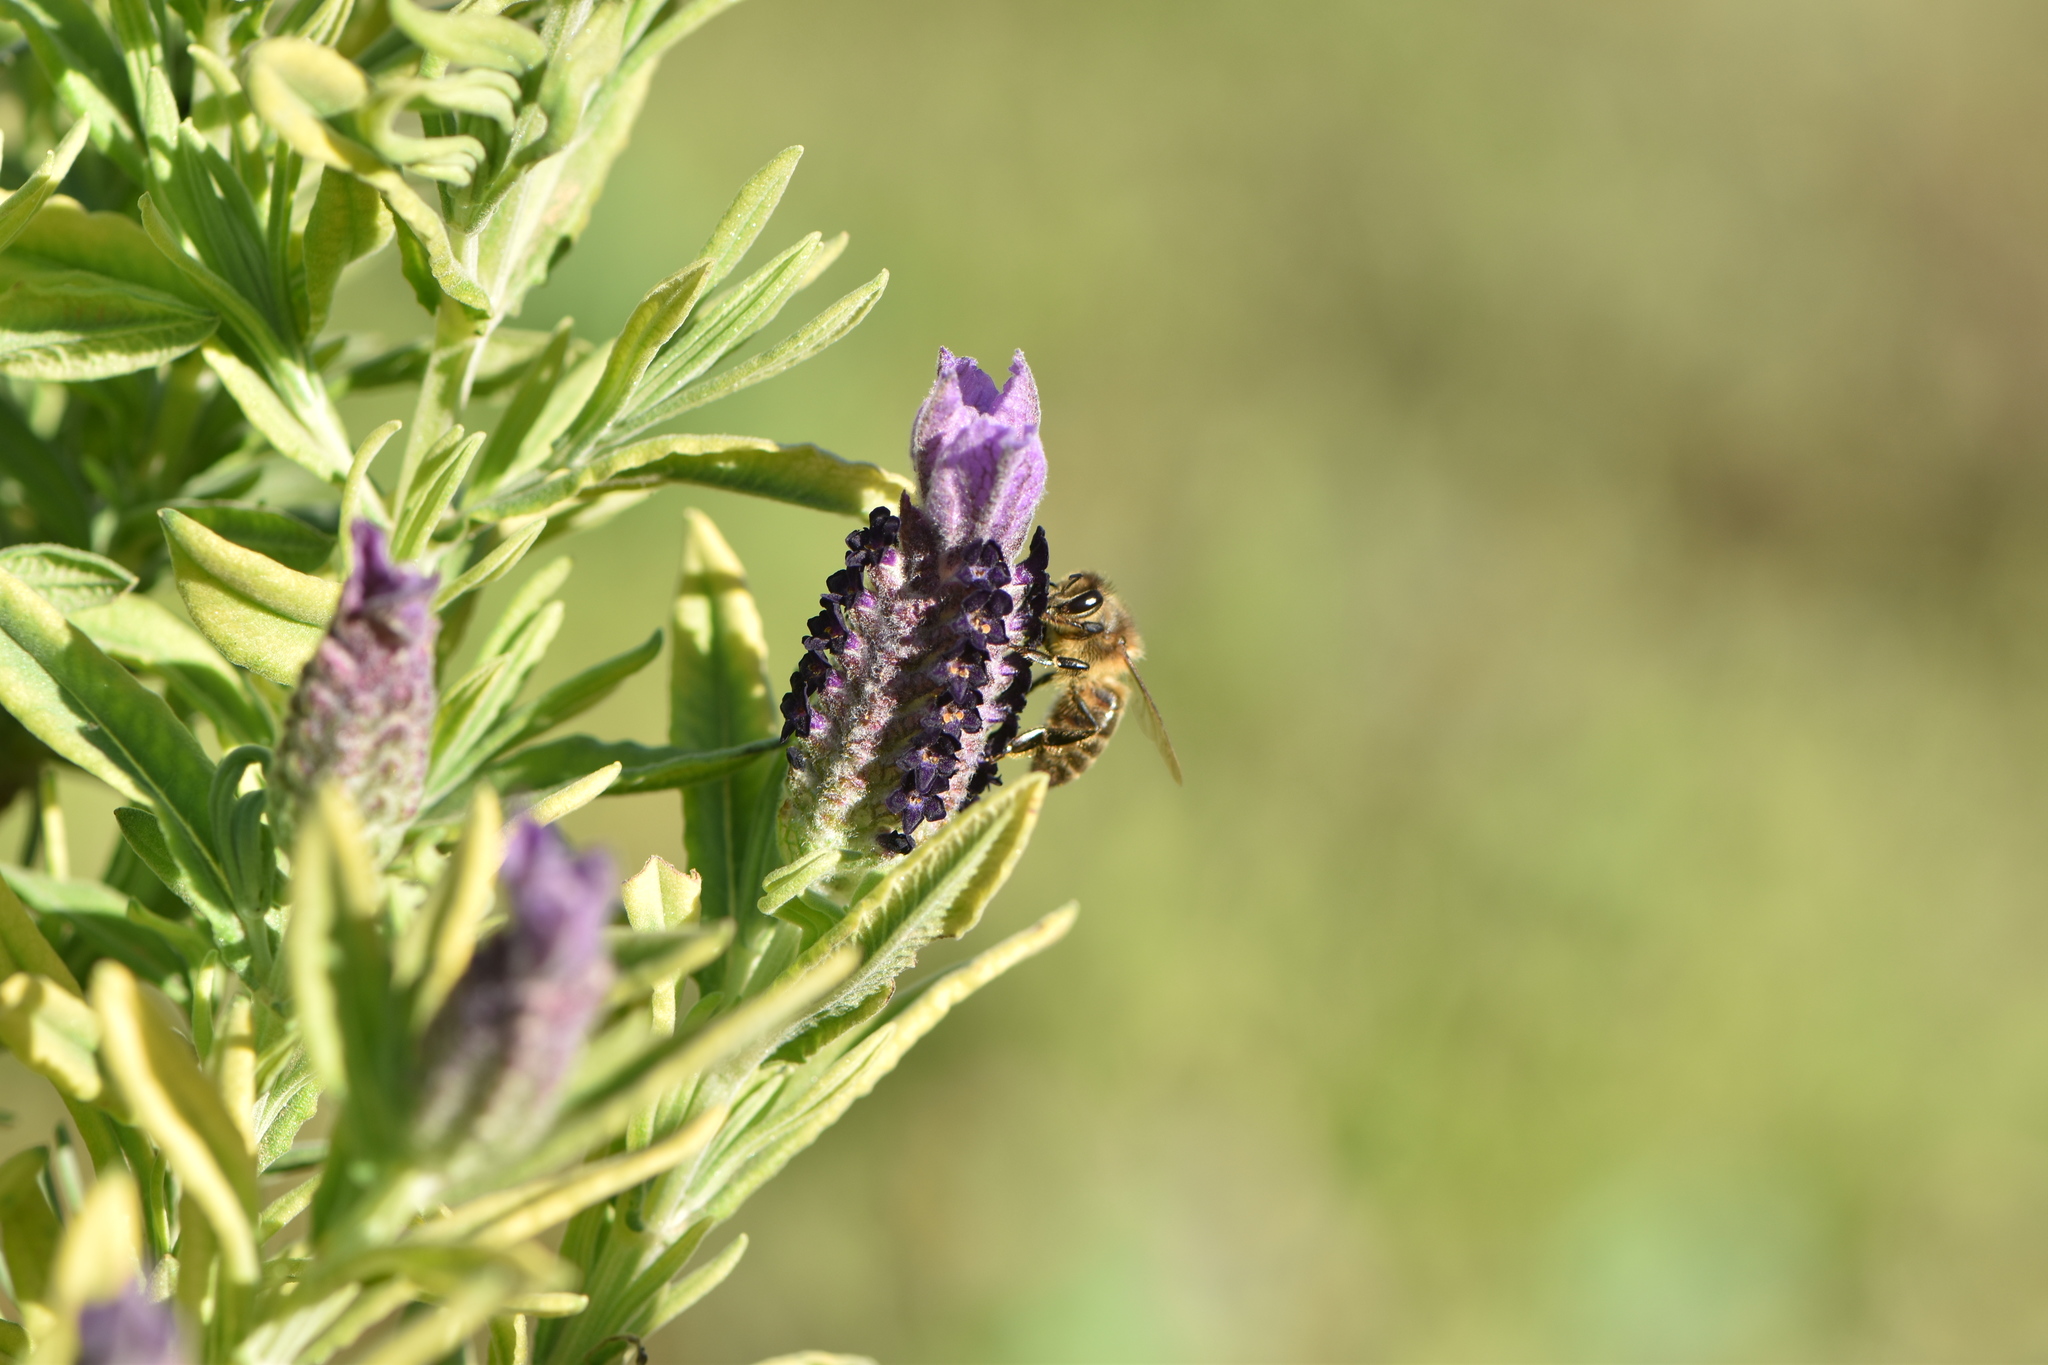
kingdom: Animalia
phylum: Arthropoda
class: Insecta
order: Hymenoptera
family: Apidae
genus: Apis
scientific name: Apis mellifera
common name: Honey bee
